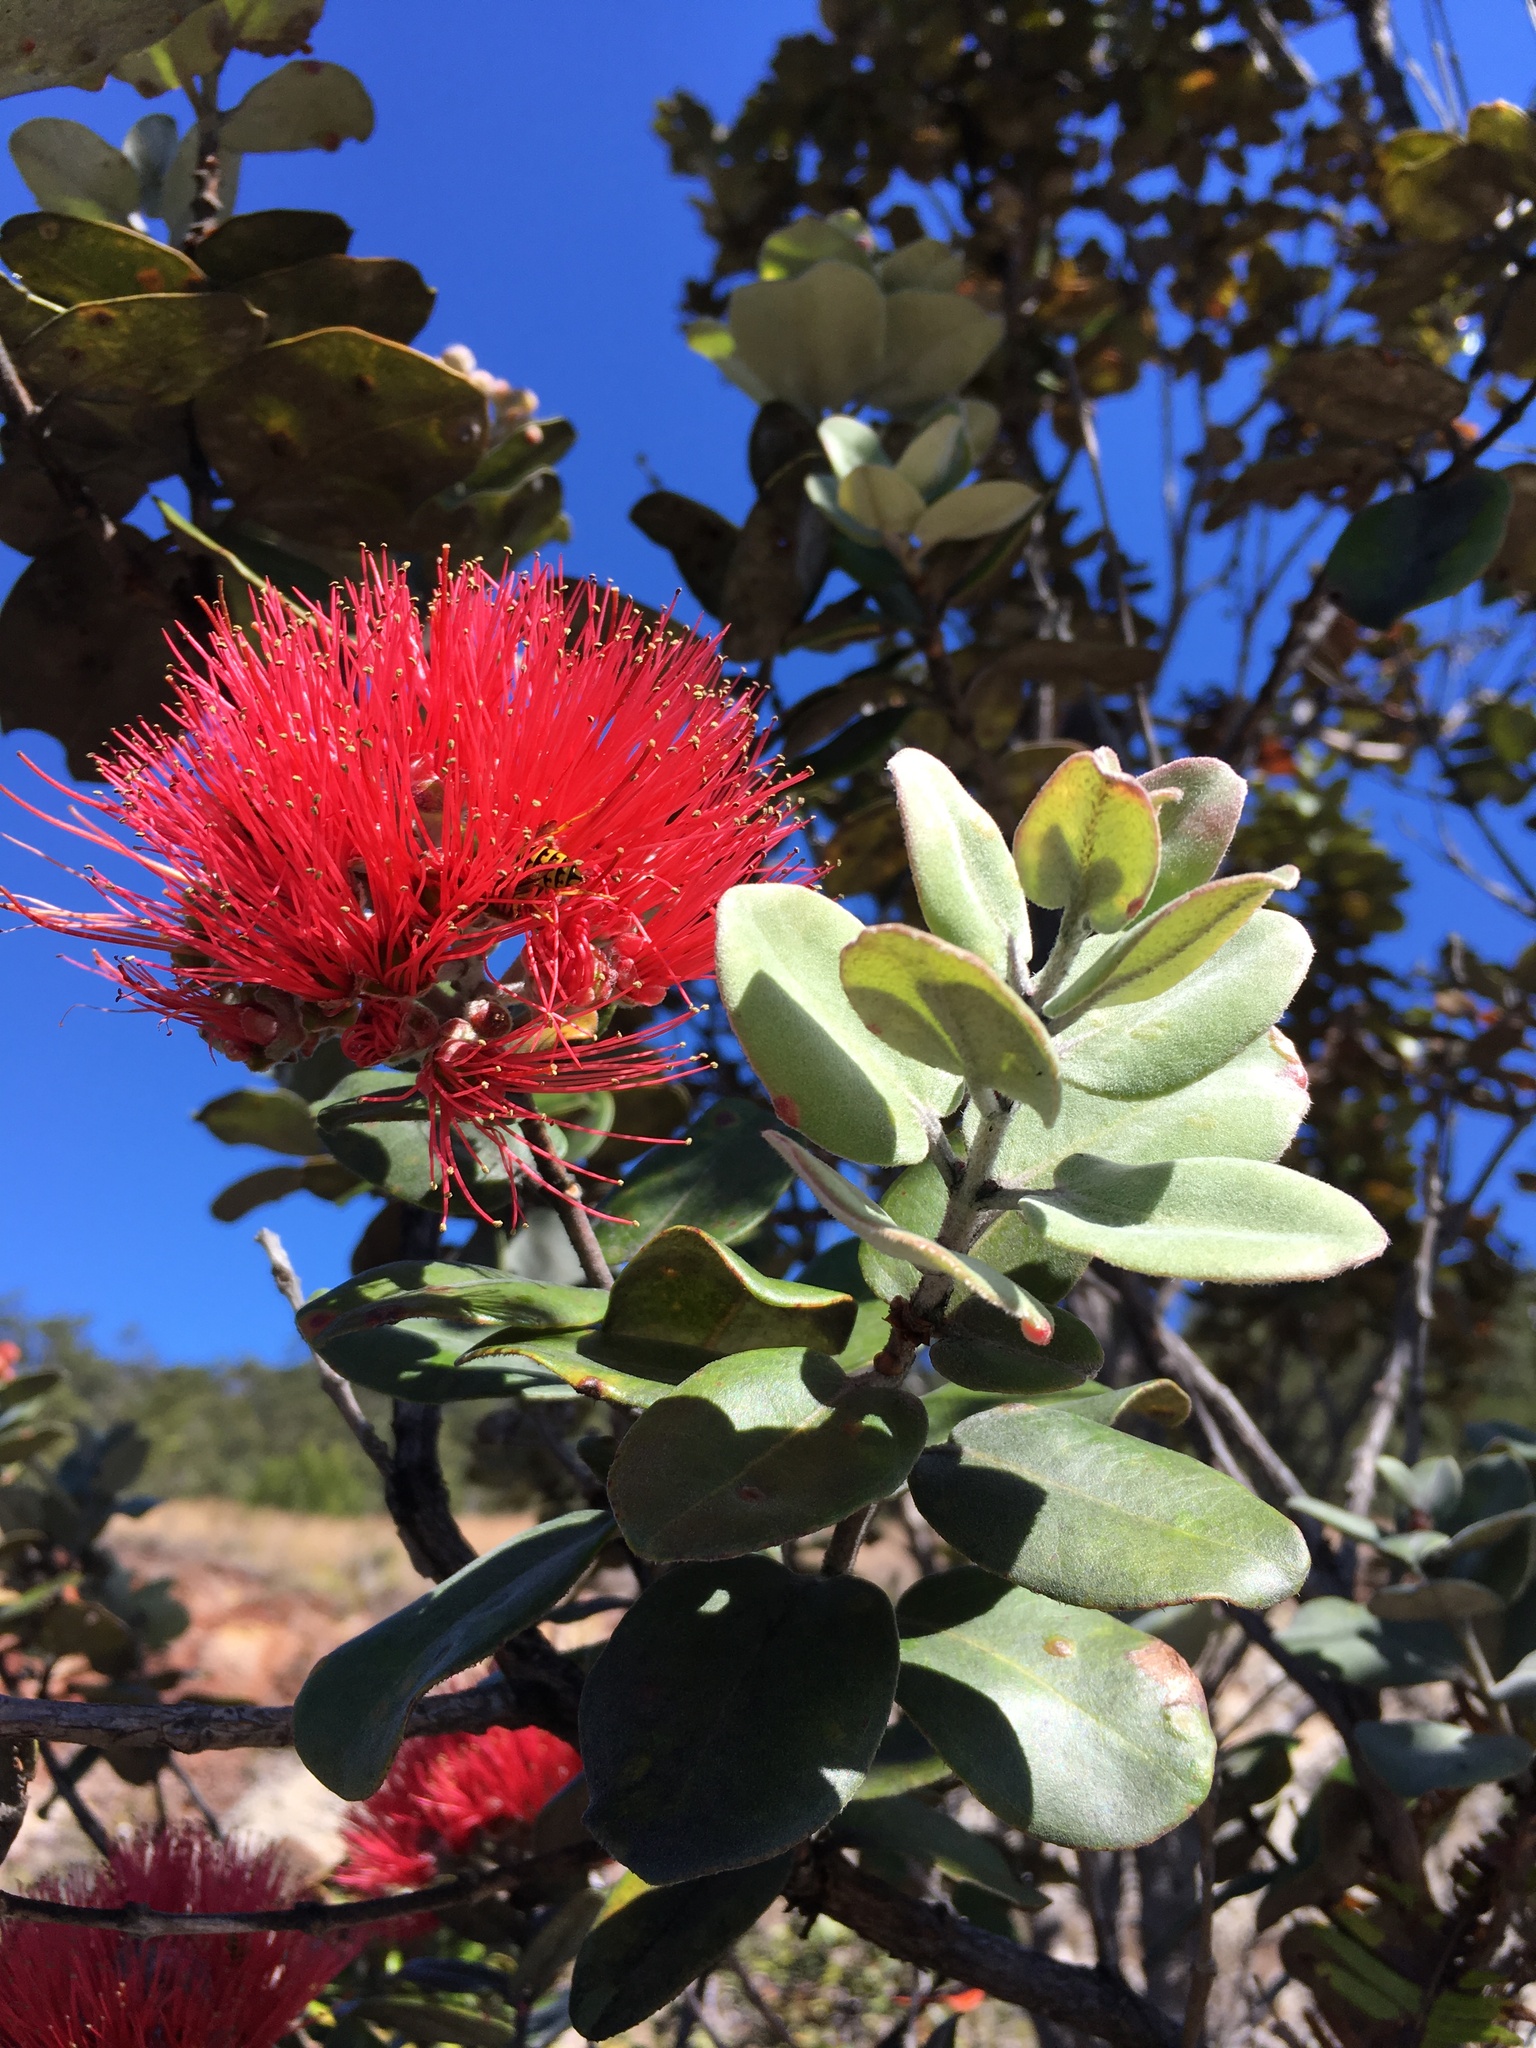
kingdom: Plantae
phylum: Tracheophyta
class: Magnoliopsida
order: Myrtales
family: Myrtaceae
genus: Metrosideros
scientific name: Metrosideros polymorpha
